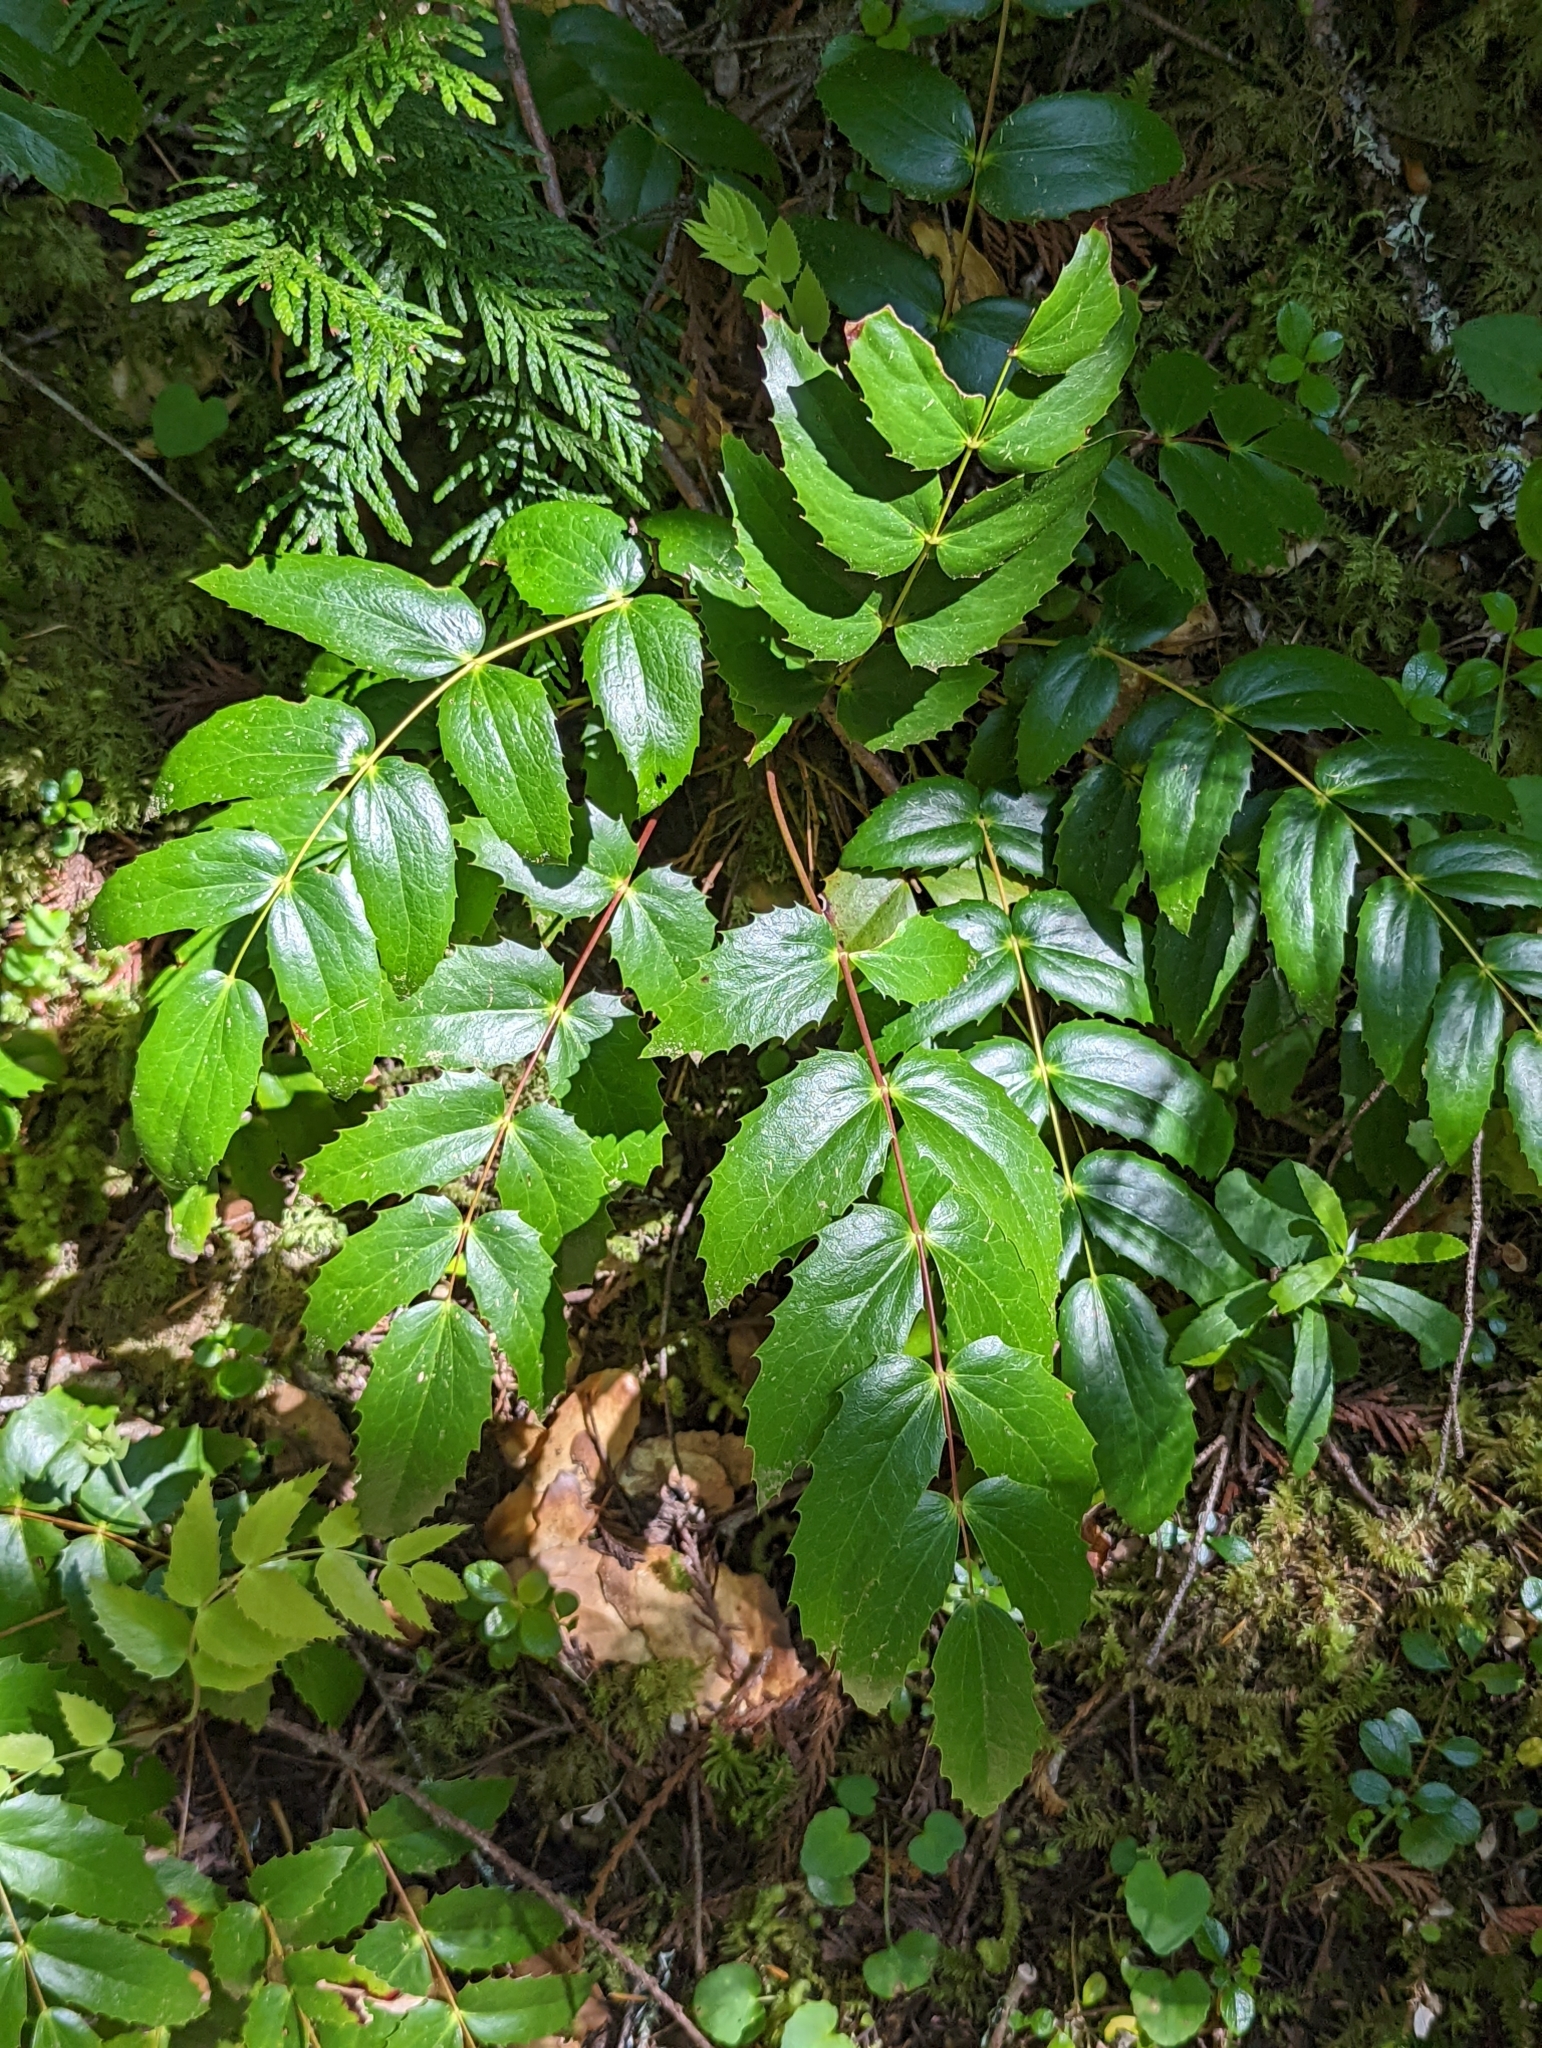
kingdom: Plantae
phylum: Tracheophyta
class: Magnoliopsida
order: Ranunculales
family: Berberidaceae
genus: Mahonia
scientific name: Mahonia nervosa
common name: Cascade oregon-grape
